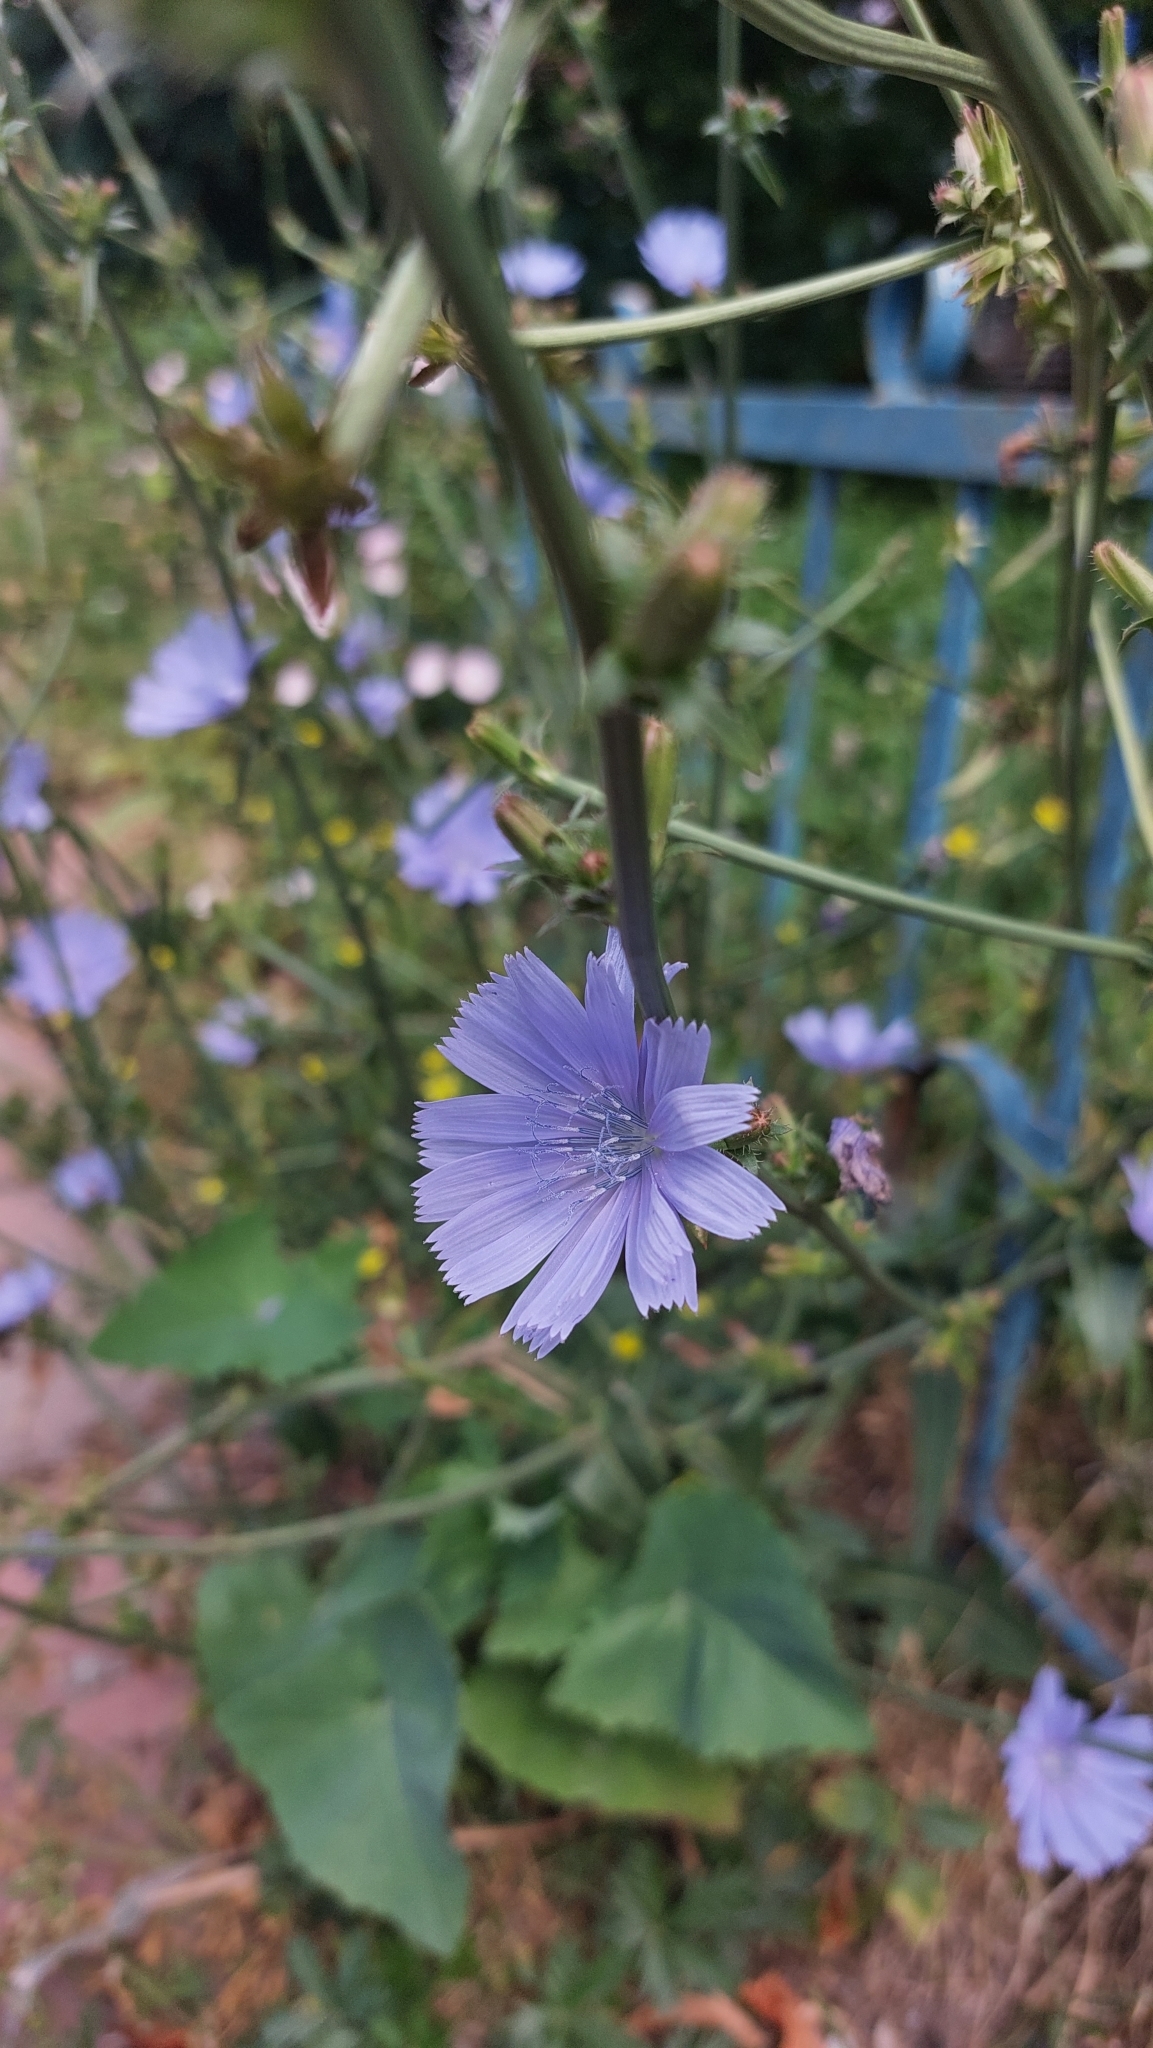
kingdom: Plantae
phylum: Tracheophyta
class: Magnoliopsida
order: Asterales
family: Asteraceae
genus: Cichorium
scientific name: Cichorium intybus
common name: Chicory
